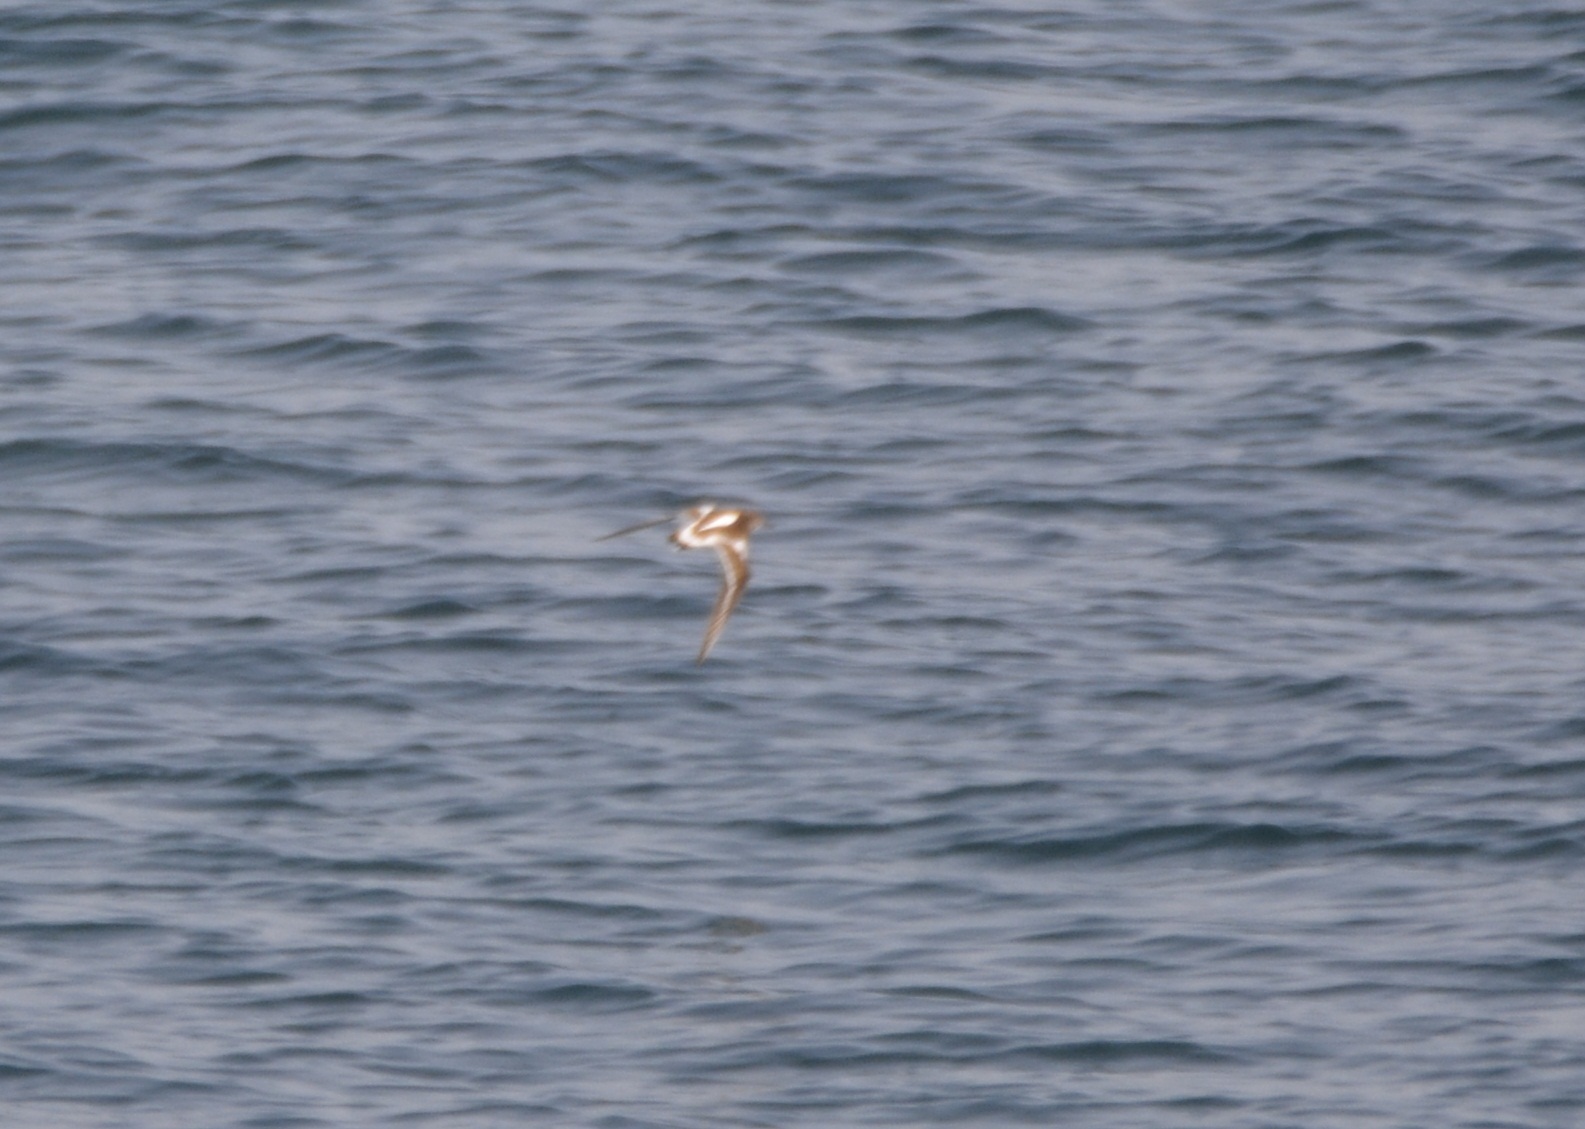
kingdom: Animalia
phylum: Chordata
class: Aves
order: Charadriiformes
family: Scolopacidae
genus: Arenaria
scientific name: Arenaria interpres
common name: Ruddy turnstone
